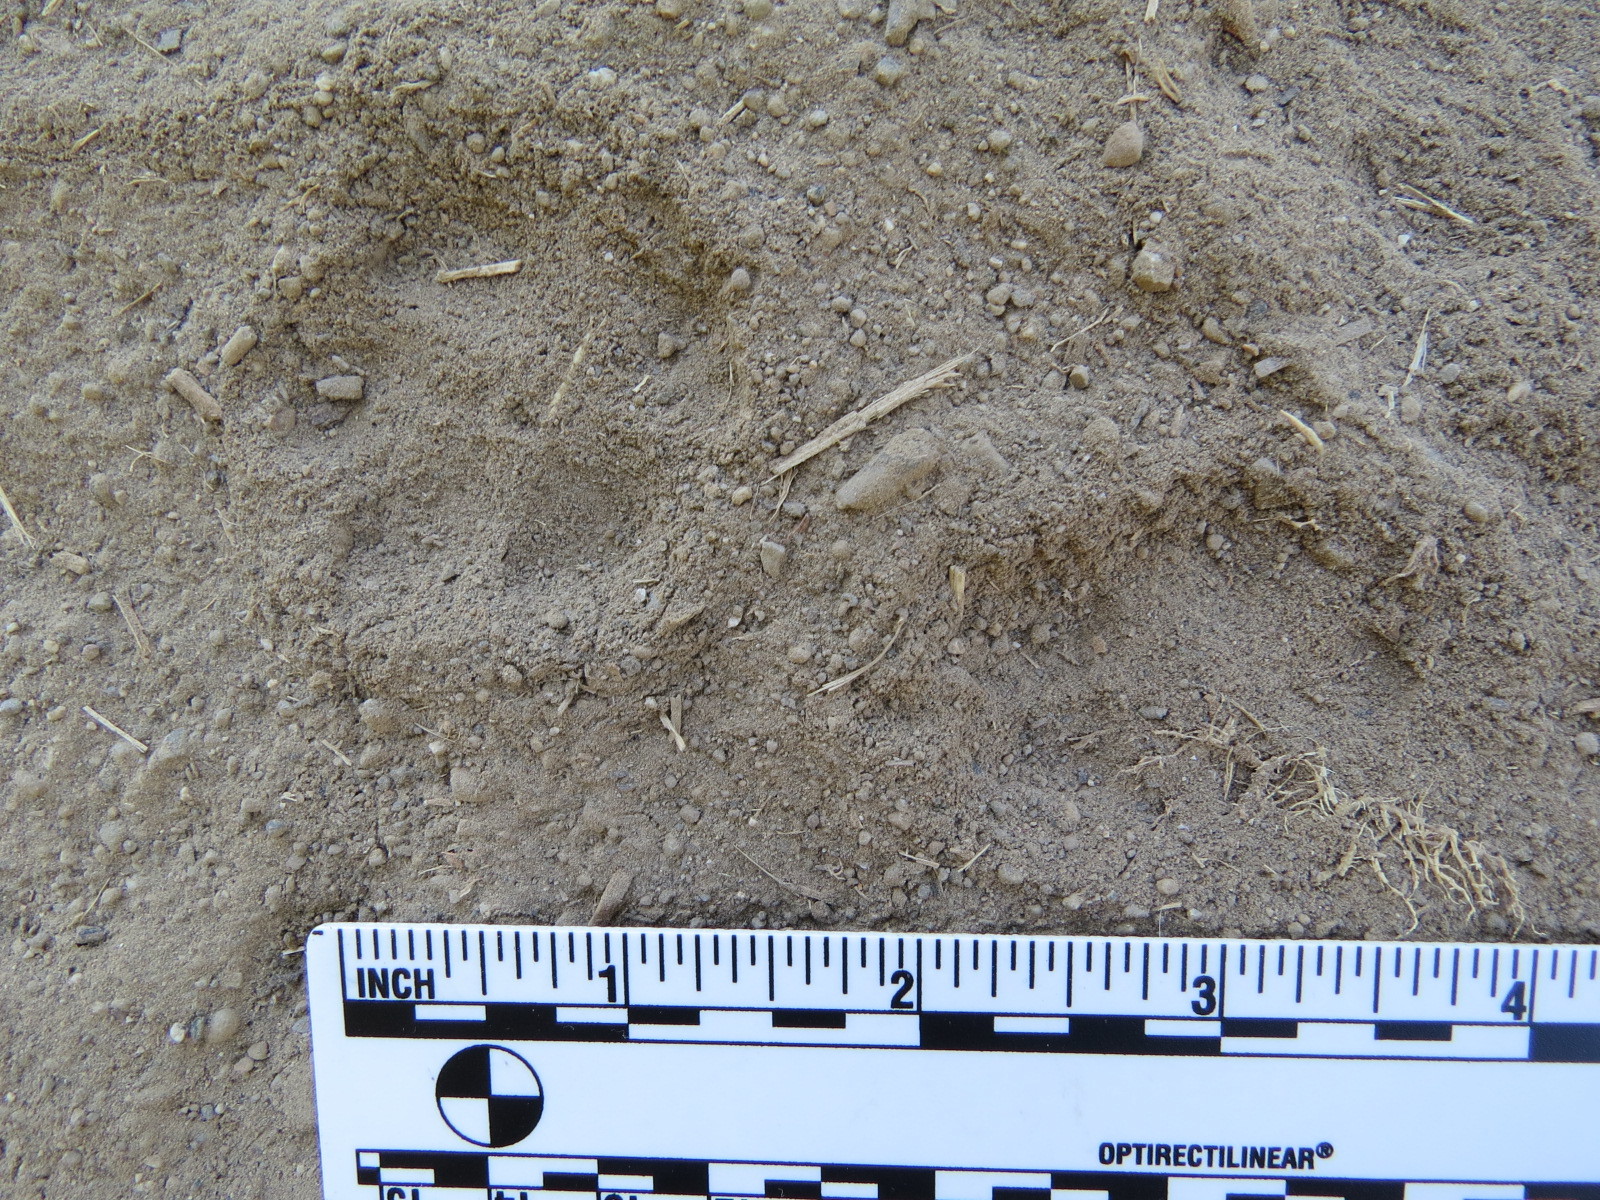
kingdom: Animalia
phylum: Chordata
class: Mammalia
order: Carnivora
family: Canidae
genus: Urocyon
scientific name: Urocyon cinereoargenteus
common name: Gray fox
